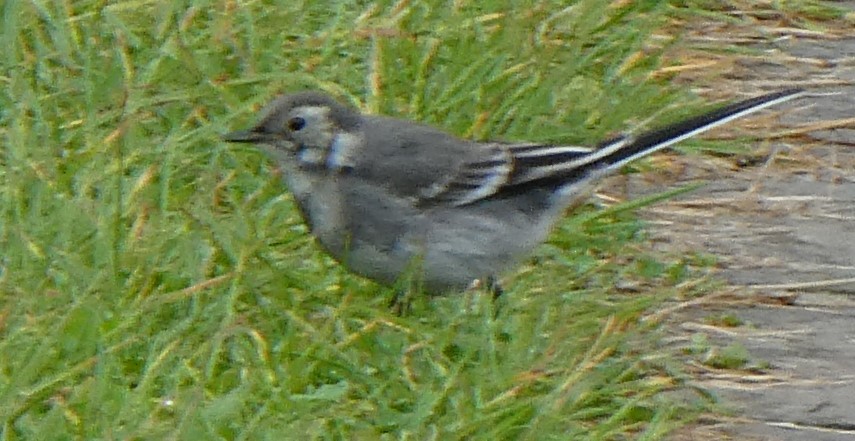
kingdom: Animalia
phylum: Chordata
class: Aves
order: Passeriformes
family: Motacillidae
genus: Motacilla
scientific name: Motacilla alba
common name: White wagtail
